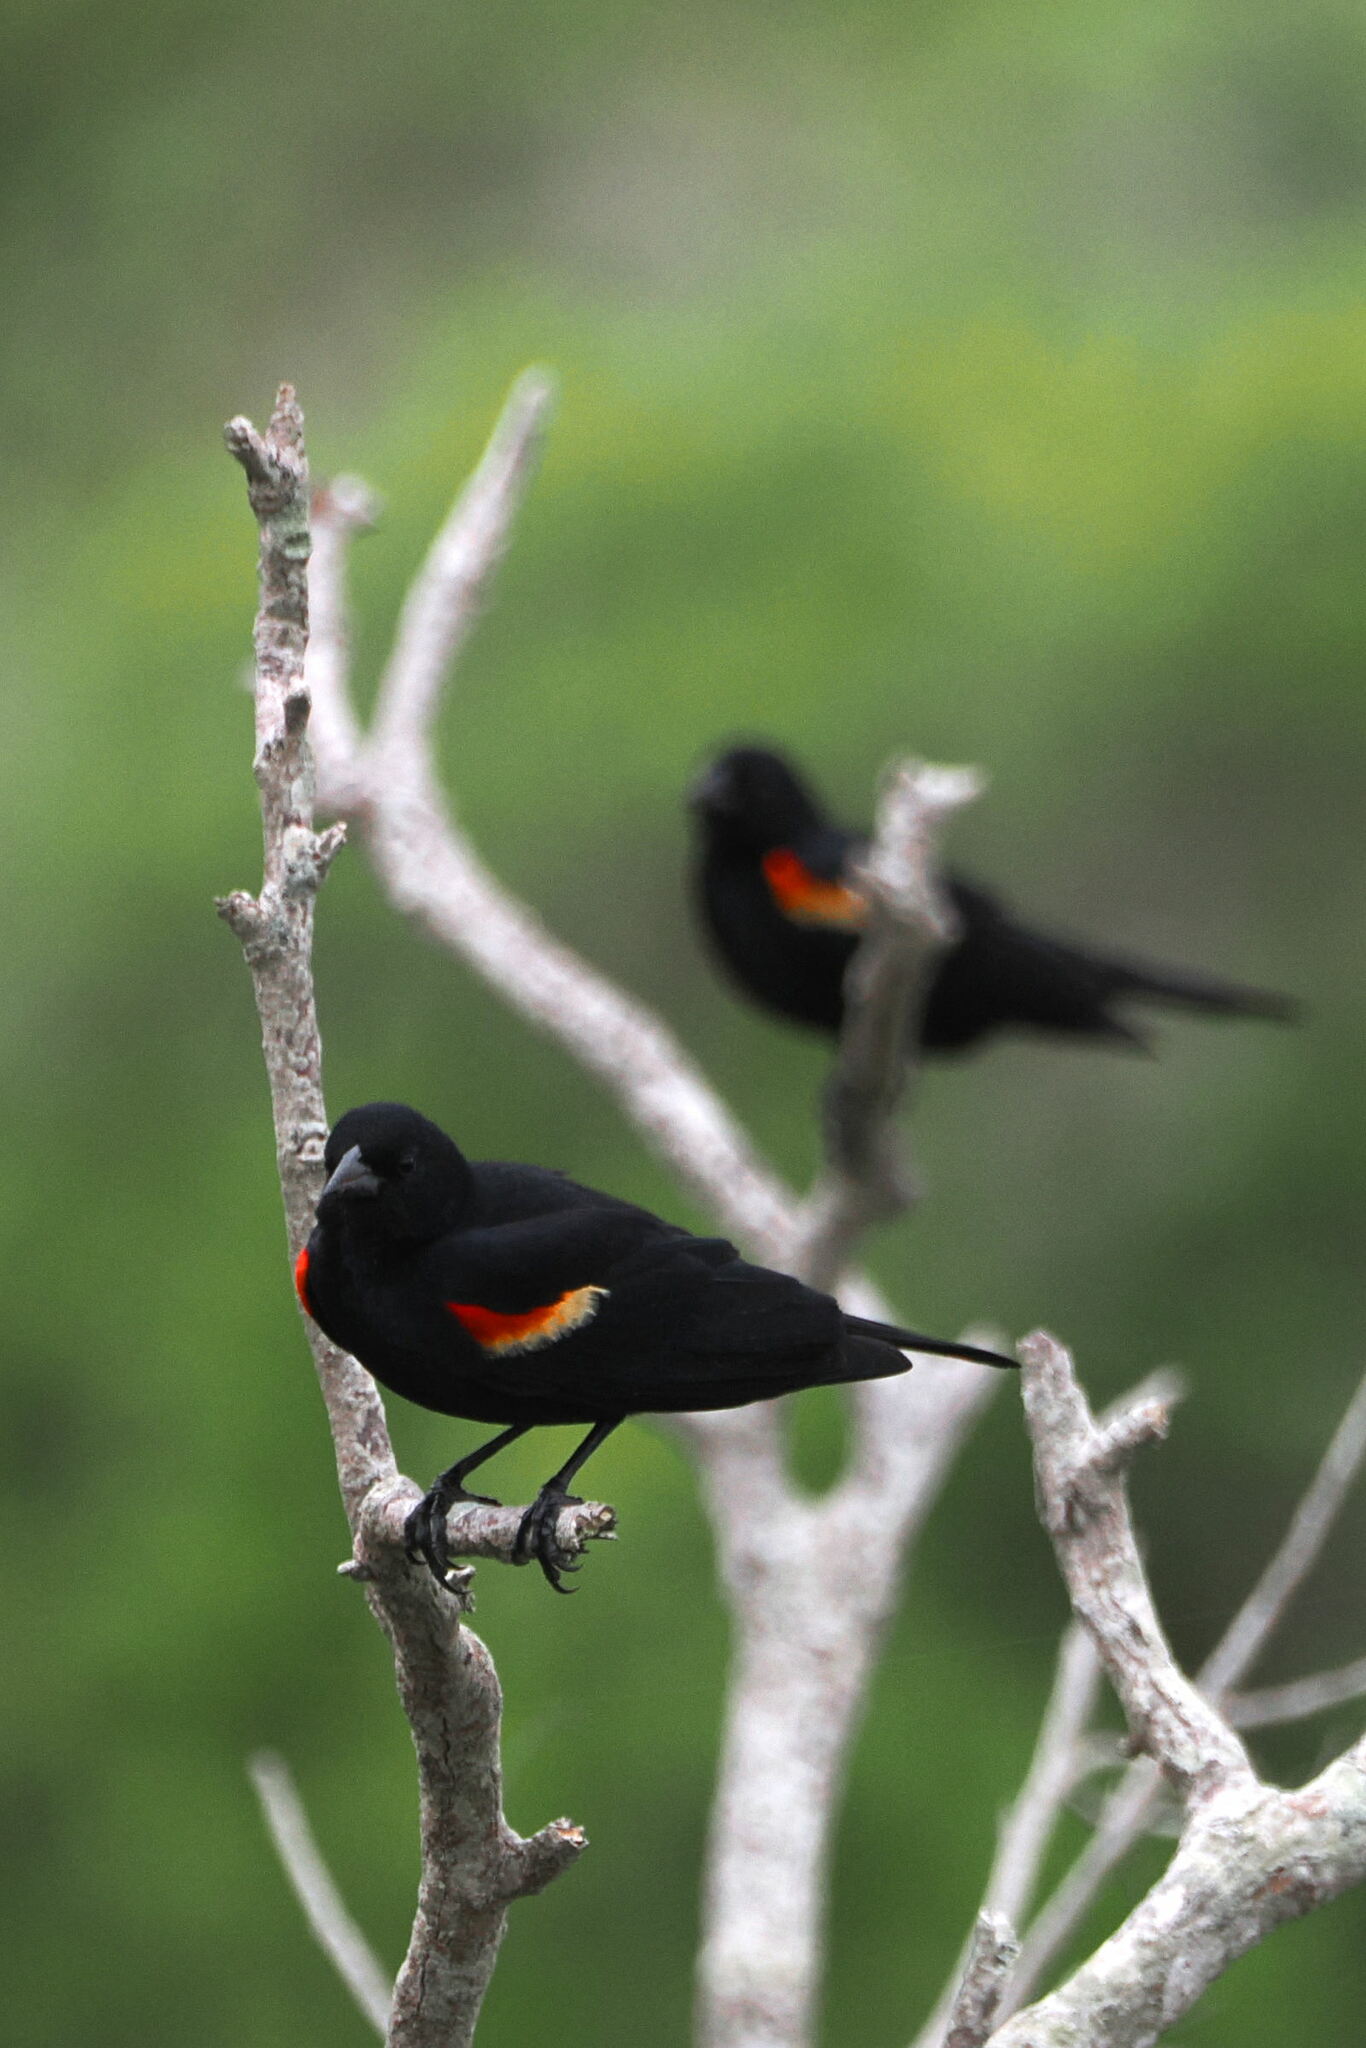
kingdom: Animalia
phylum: Chordata
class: Aves
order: Passeriformes
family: Icteridae
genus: Agelaius
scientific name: Agelaius phoeniceus
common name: Red-winged blackbird
